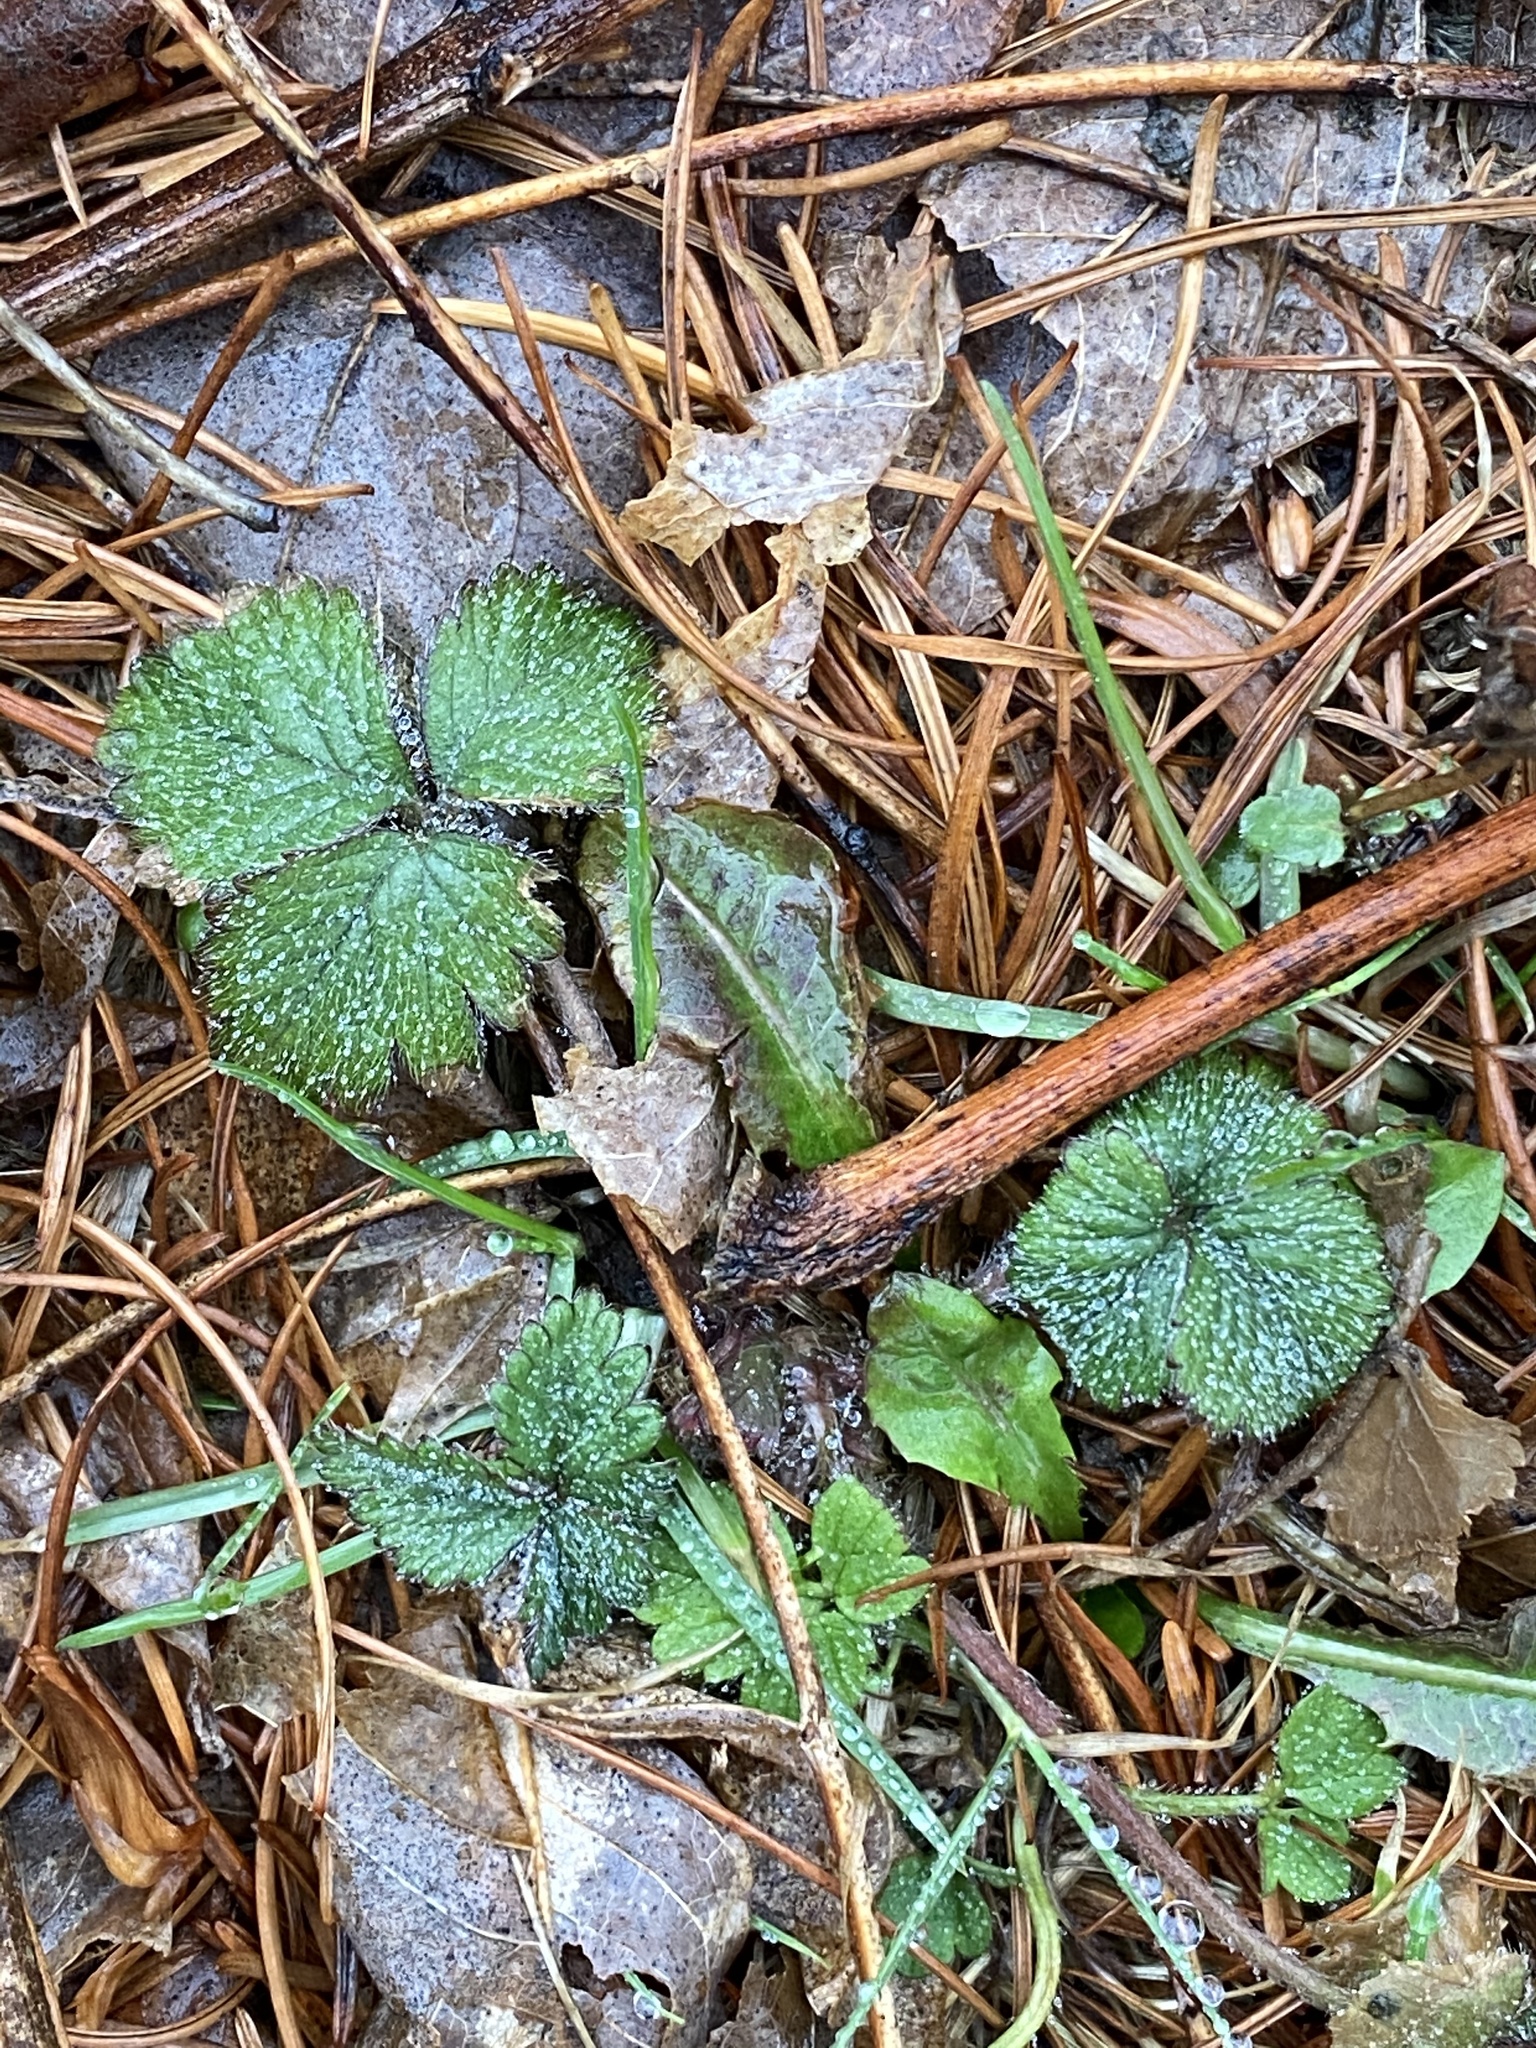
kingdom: Plantae
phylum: Tracheophyta
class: Magnoliopsida
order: Rosales
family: Rosaceae
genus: Potentilla
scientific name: Potentilla indica
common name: Yellow-flowered strawberry
